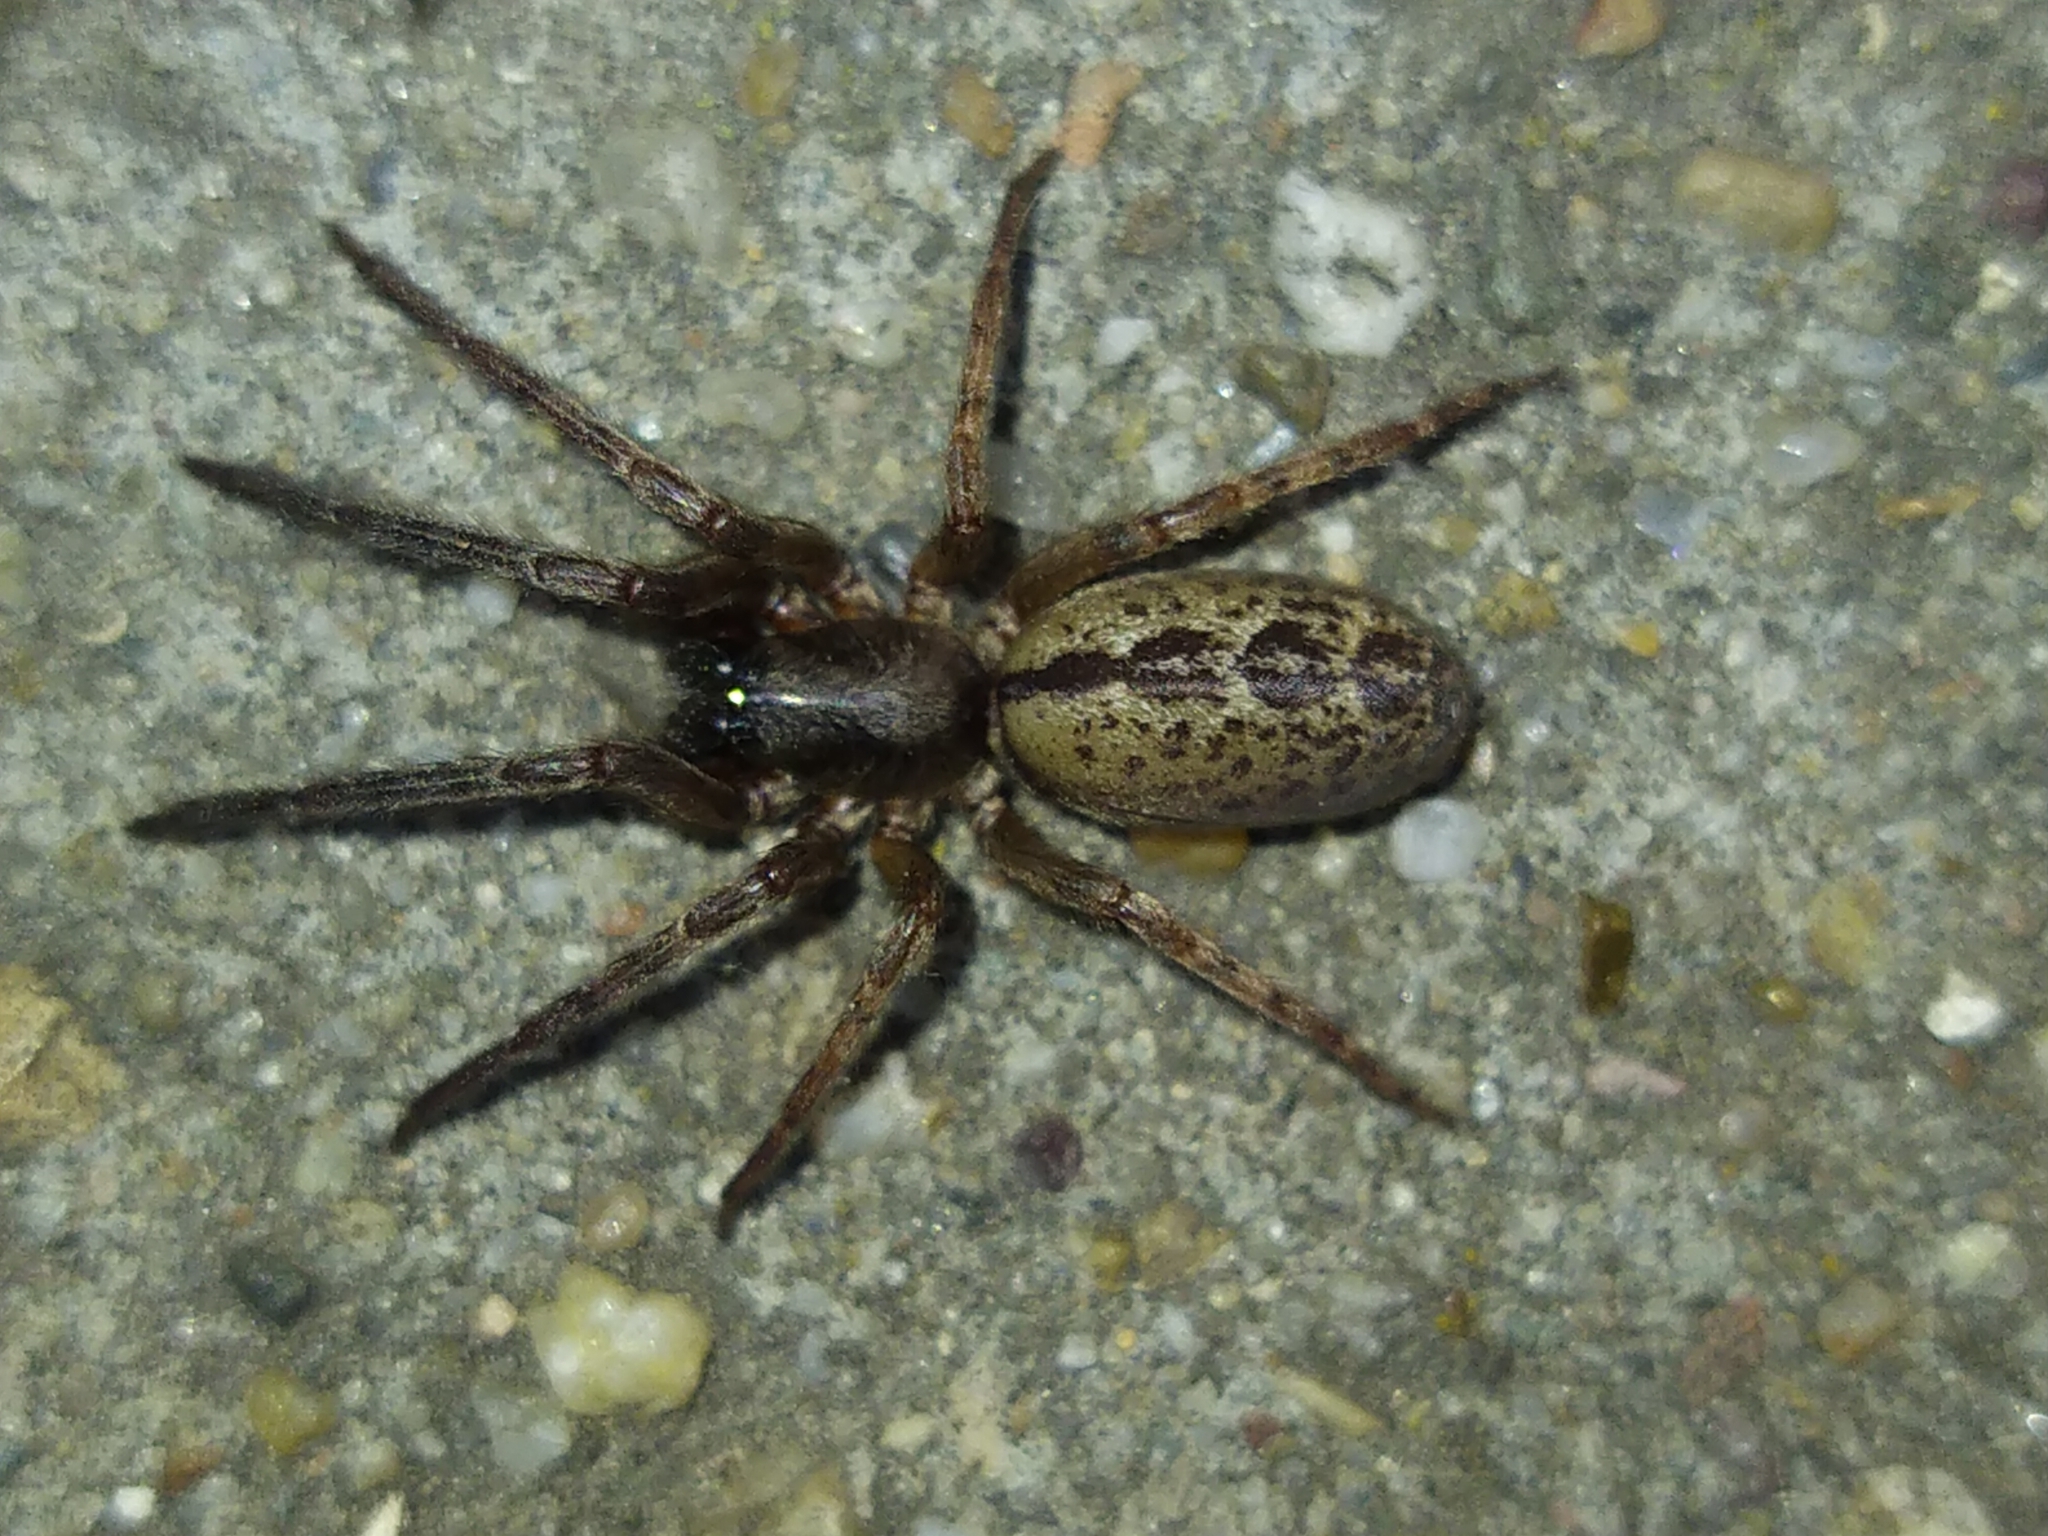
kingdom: Animalia
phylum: Arthropoda
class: Arachnida
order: Araneae
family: Segestriidae
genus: Segestria
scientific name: Segestria bavarica
